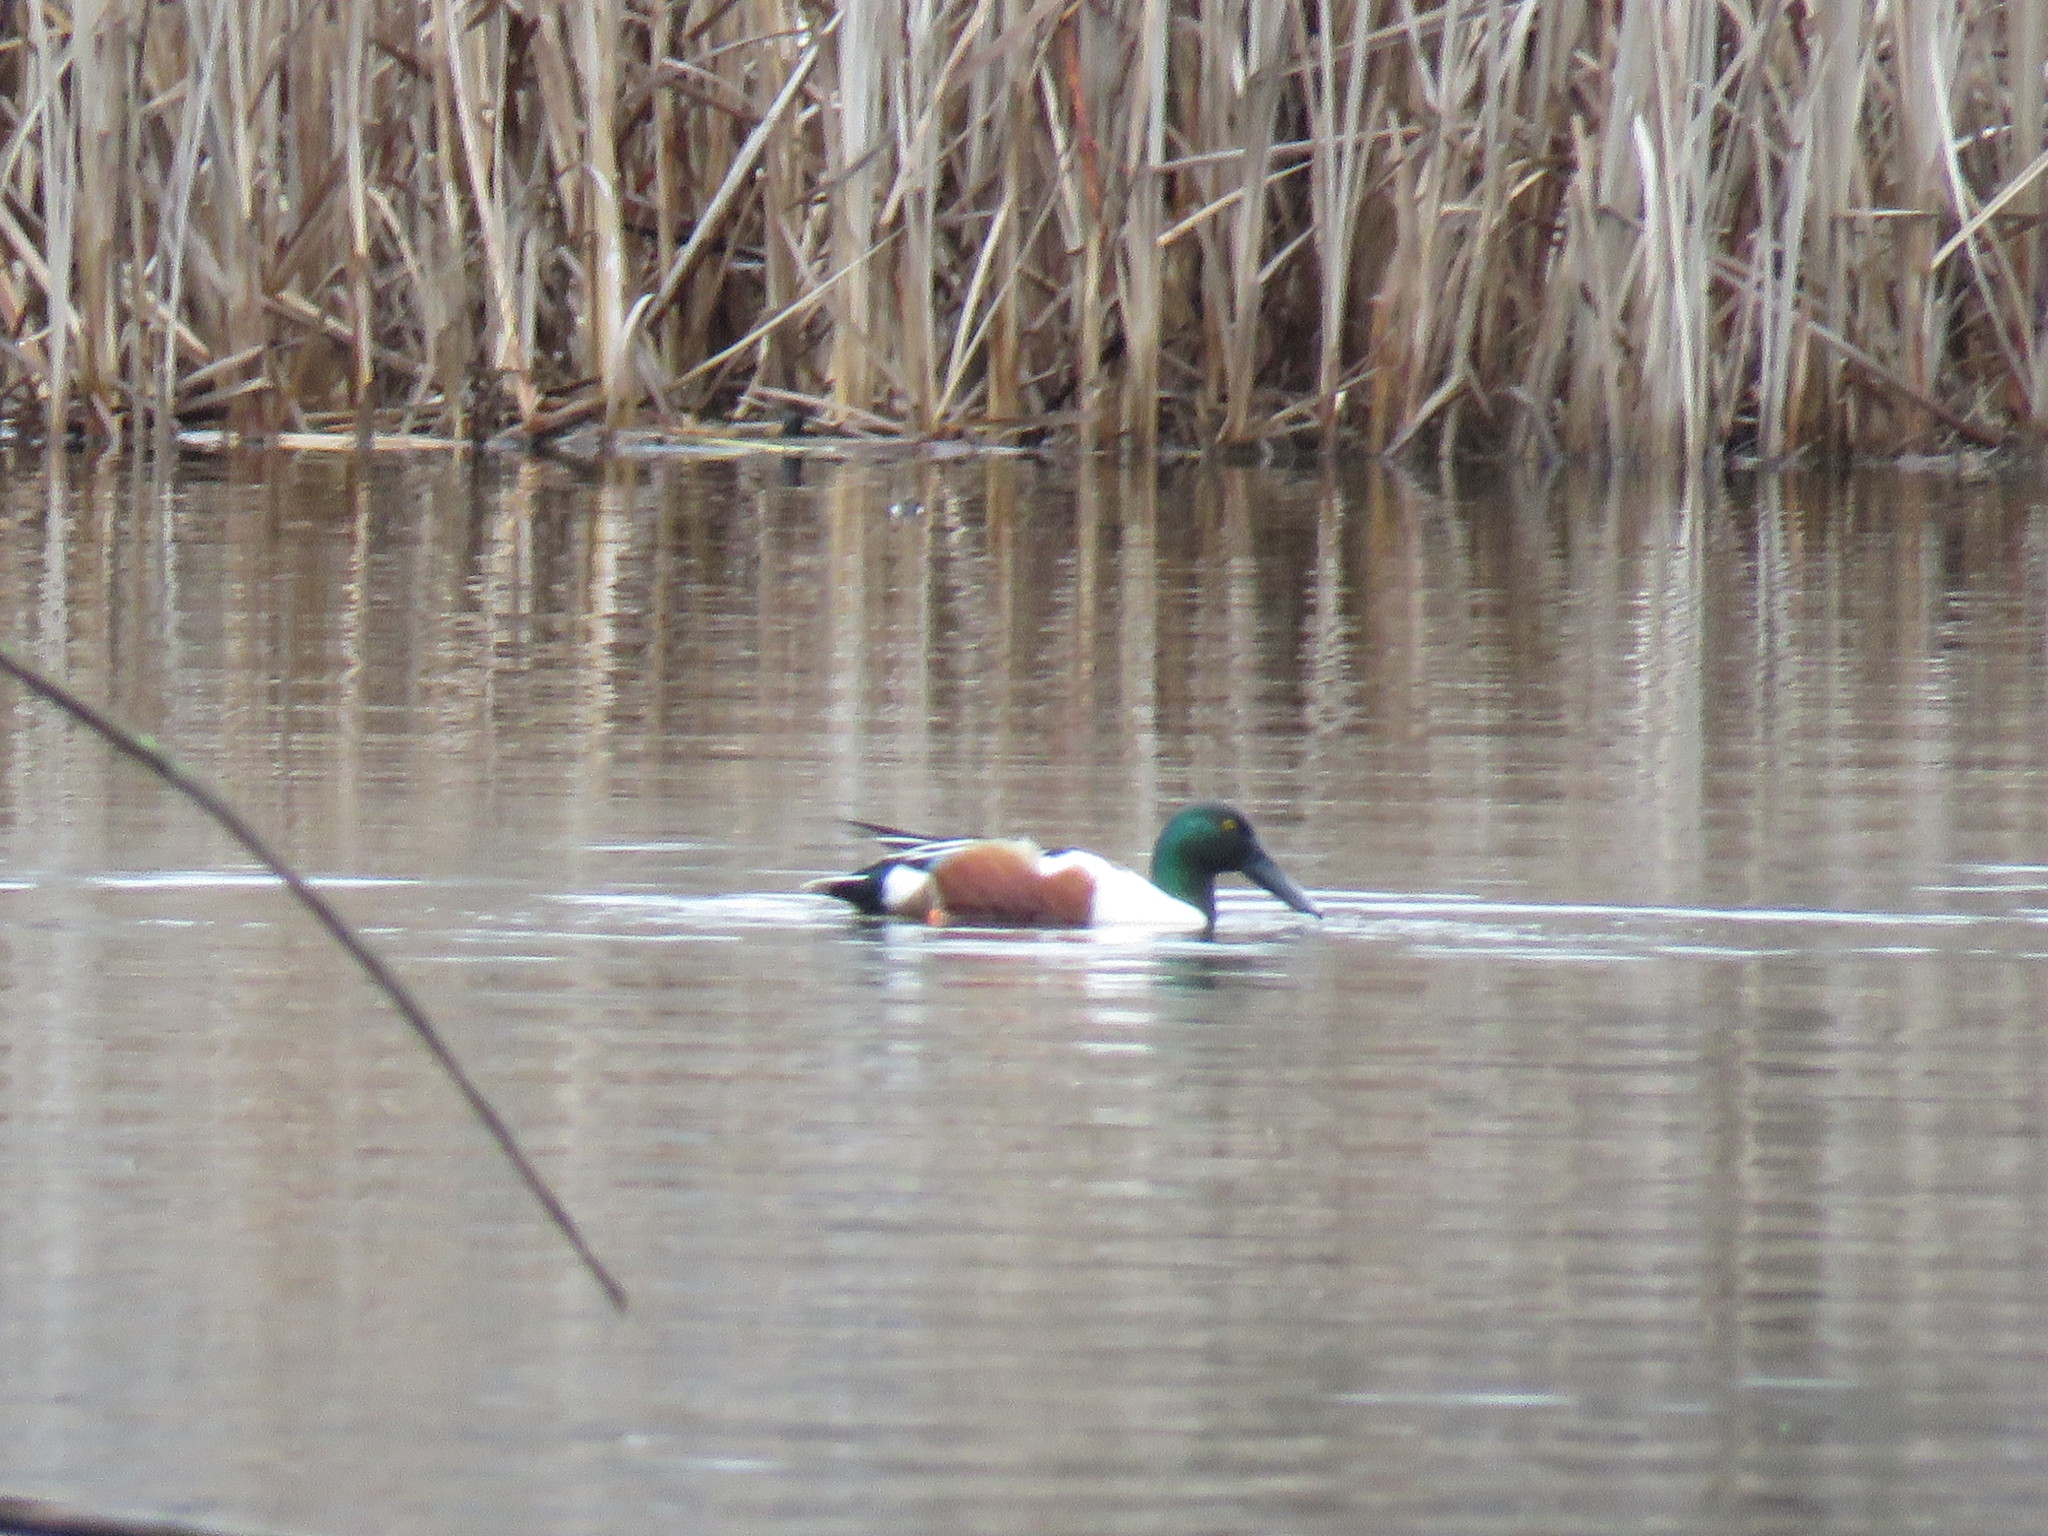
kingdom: Animalia
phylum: Chordata
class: Aves
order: Anseriformes
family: Anatidae
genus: Spatula
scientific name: Spatula clypeata
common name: Northern shoveler
